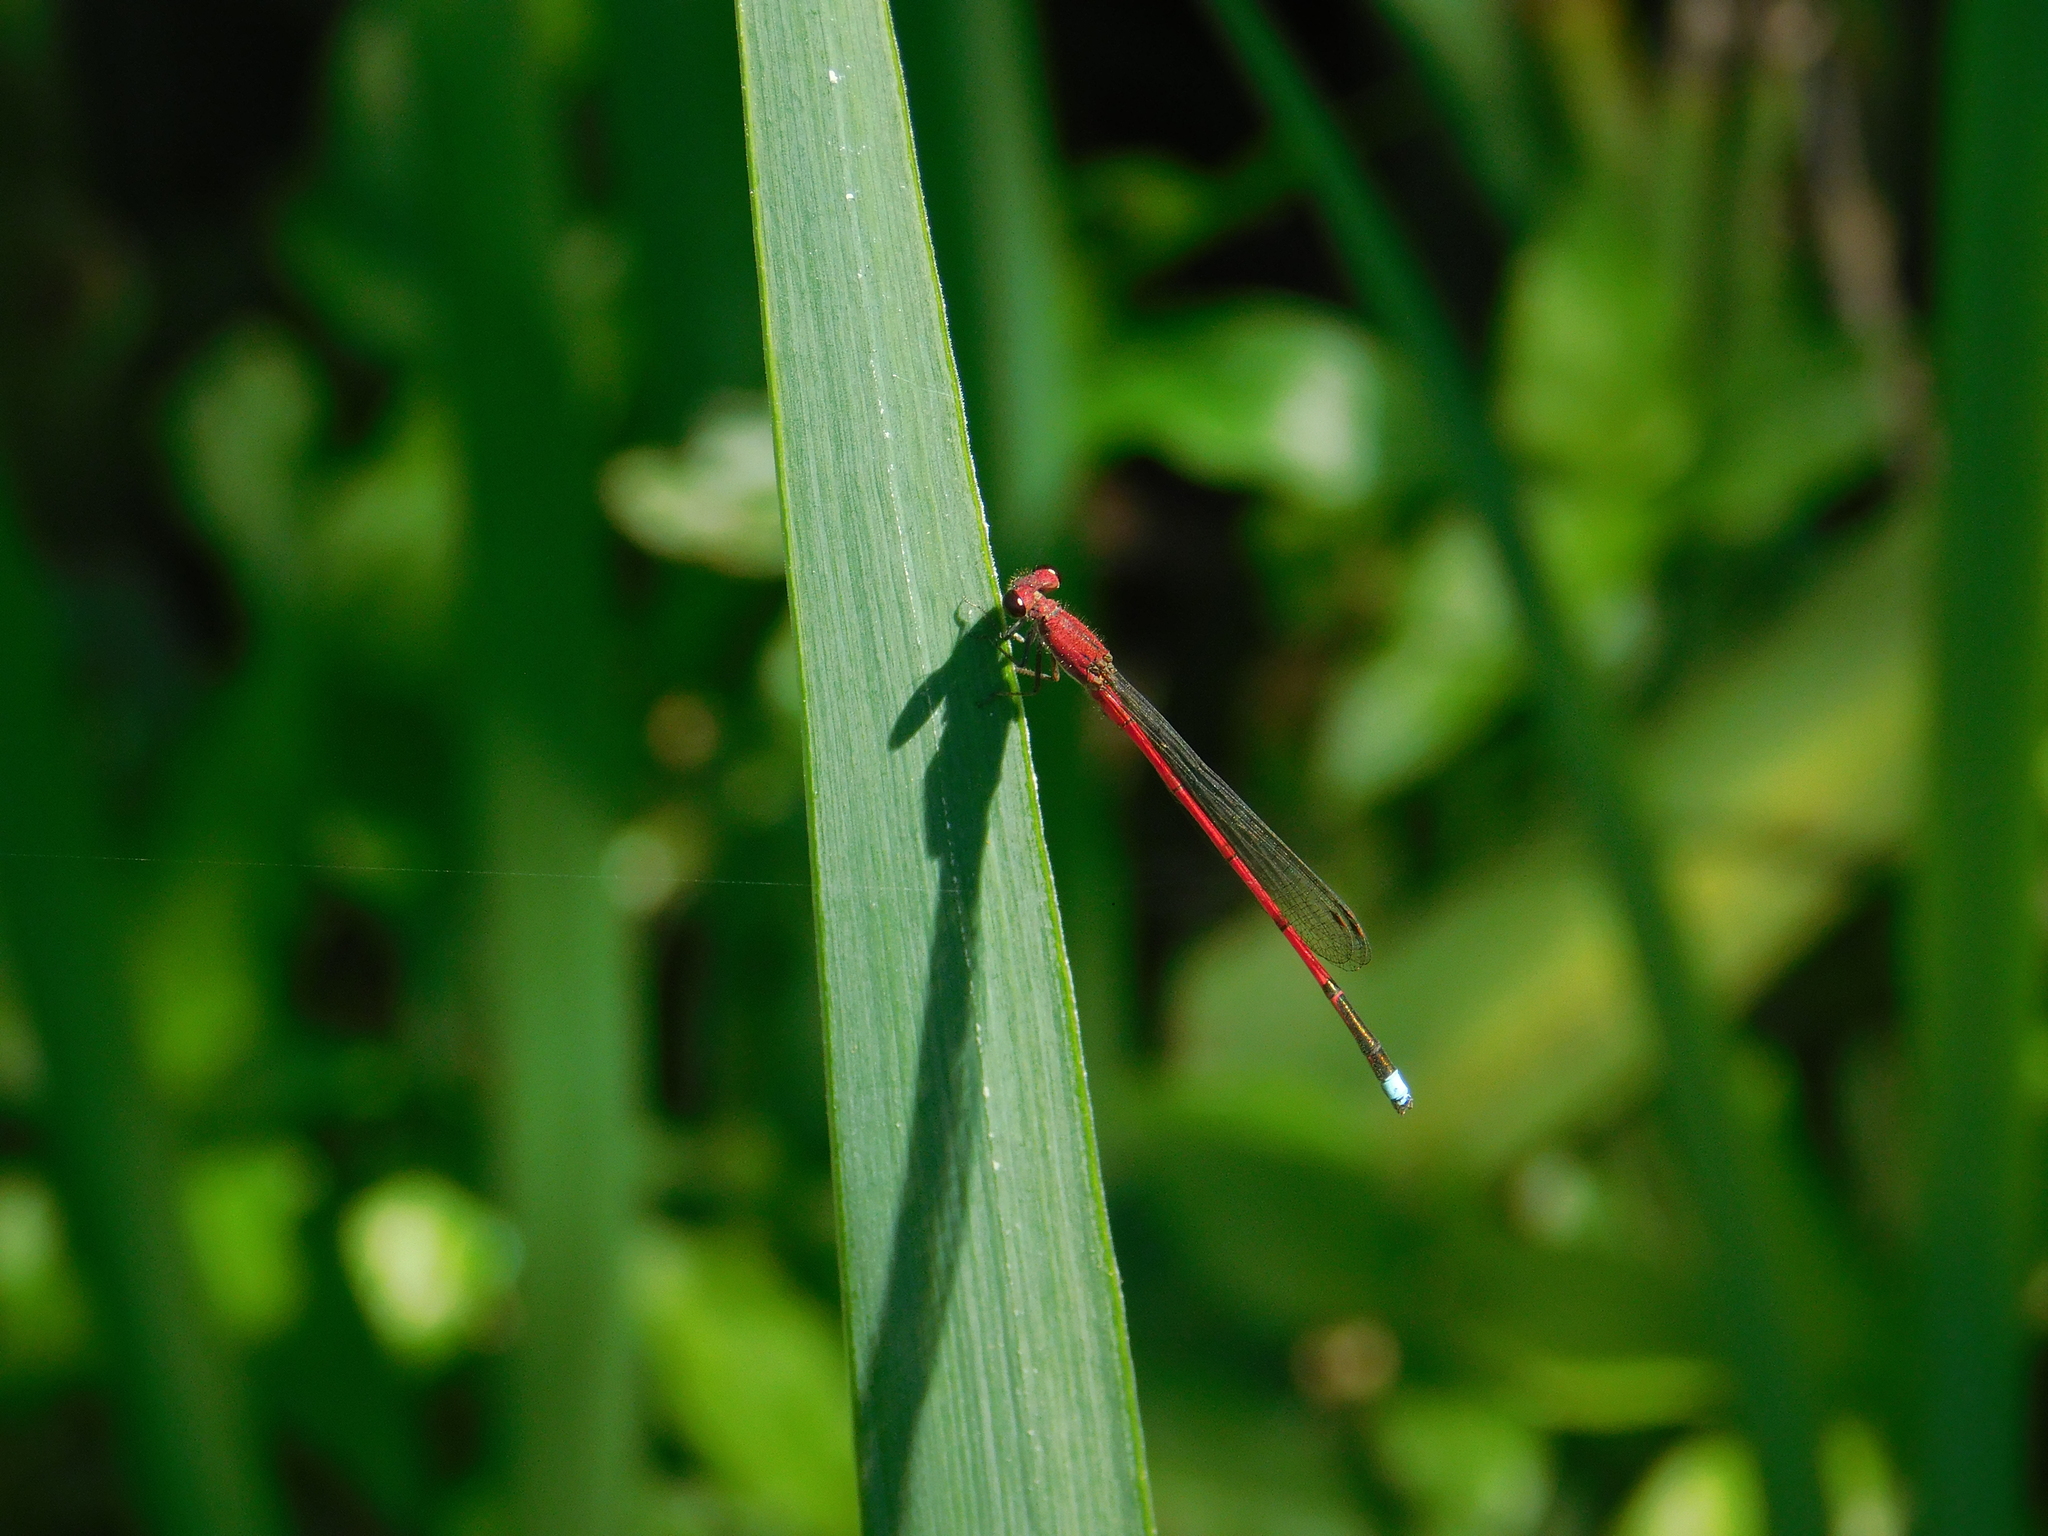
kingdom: Animalia
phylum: Arthropoda
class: Insecta
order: Odonata
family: Coenagrionidae
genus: Oxyagrion
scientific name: Oxyagrion terminale
